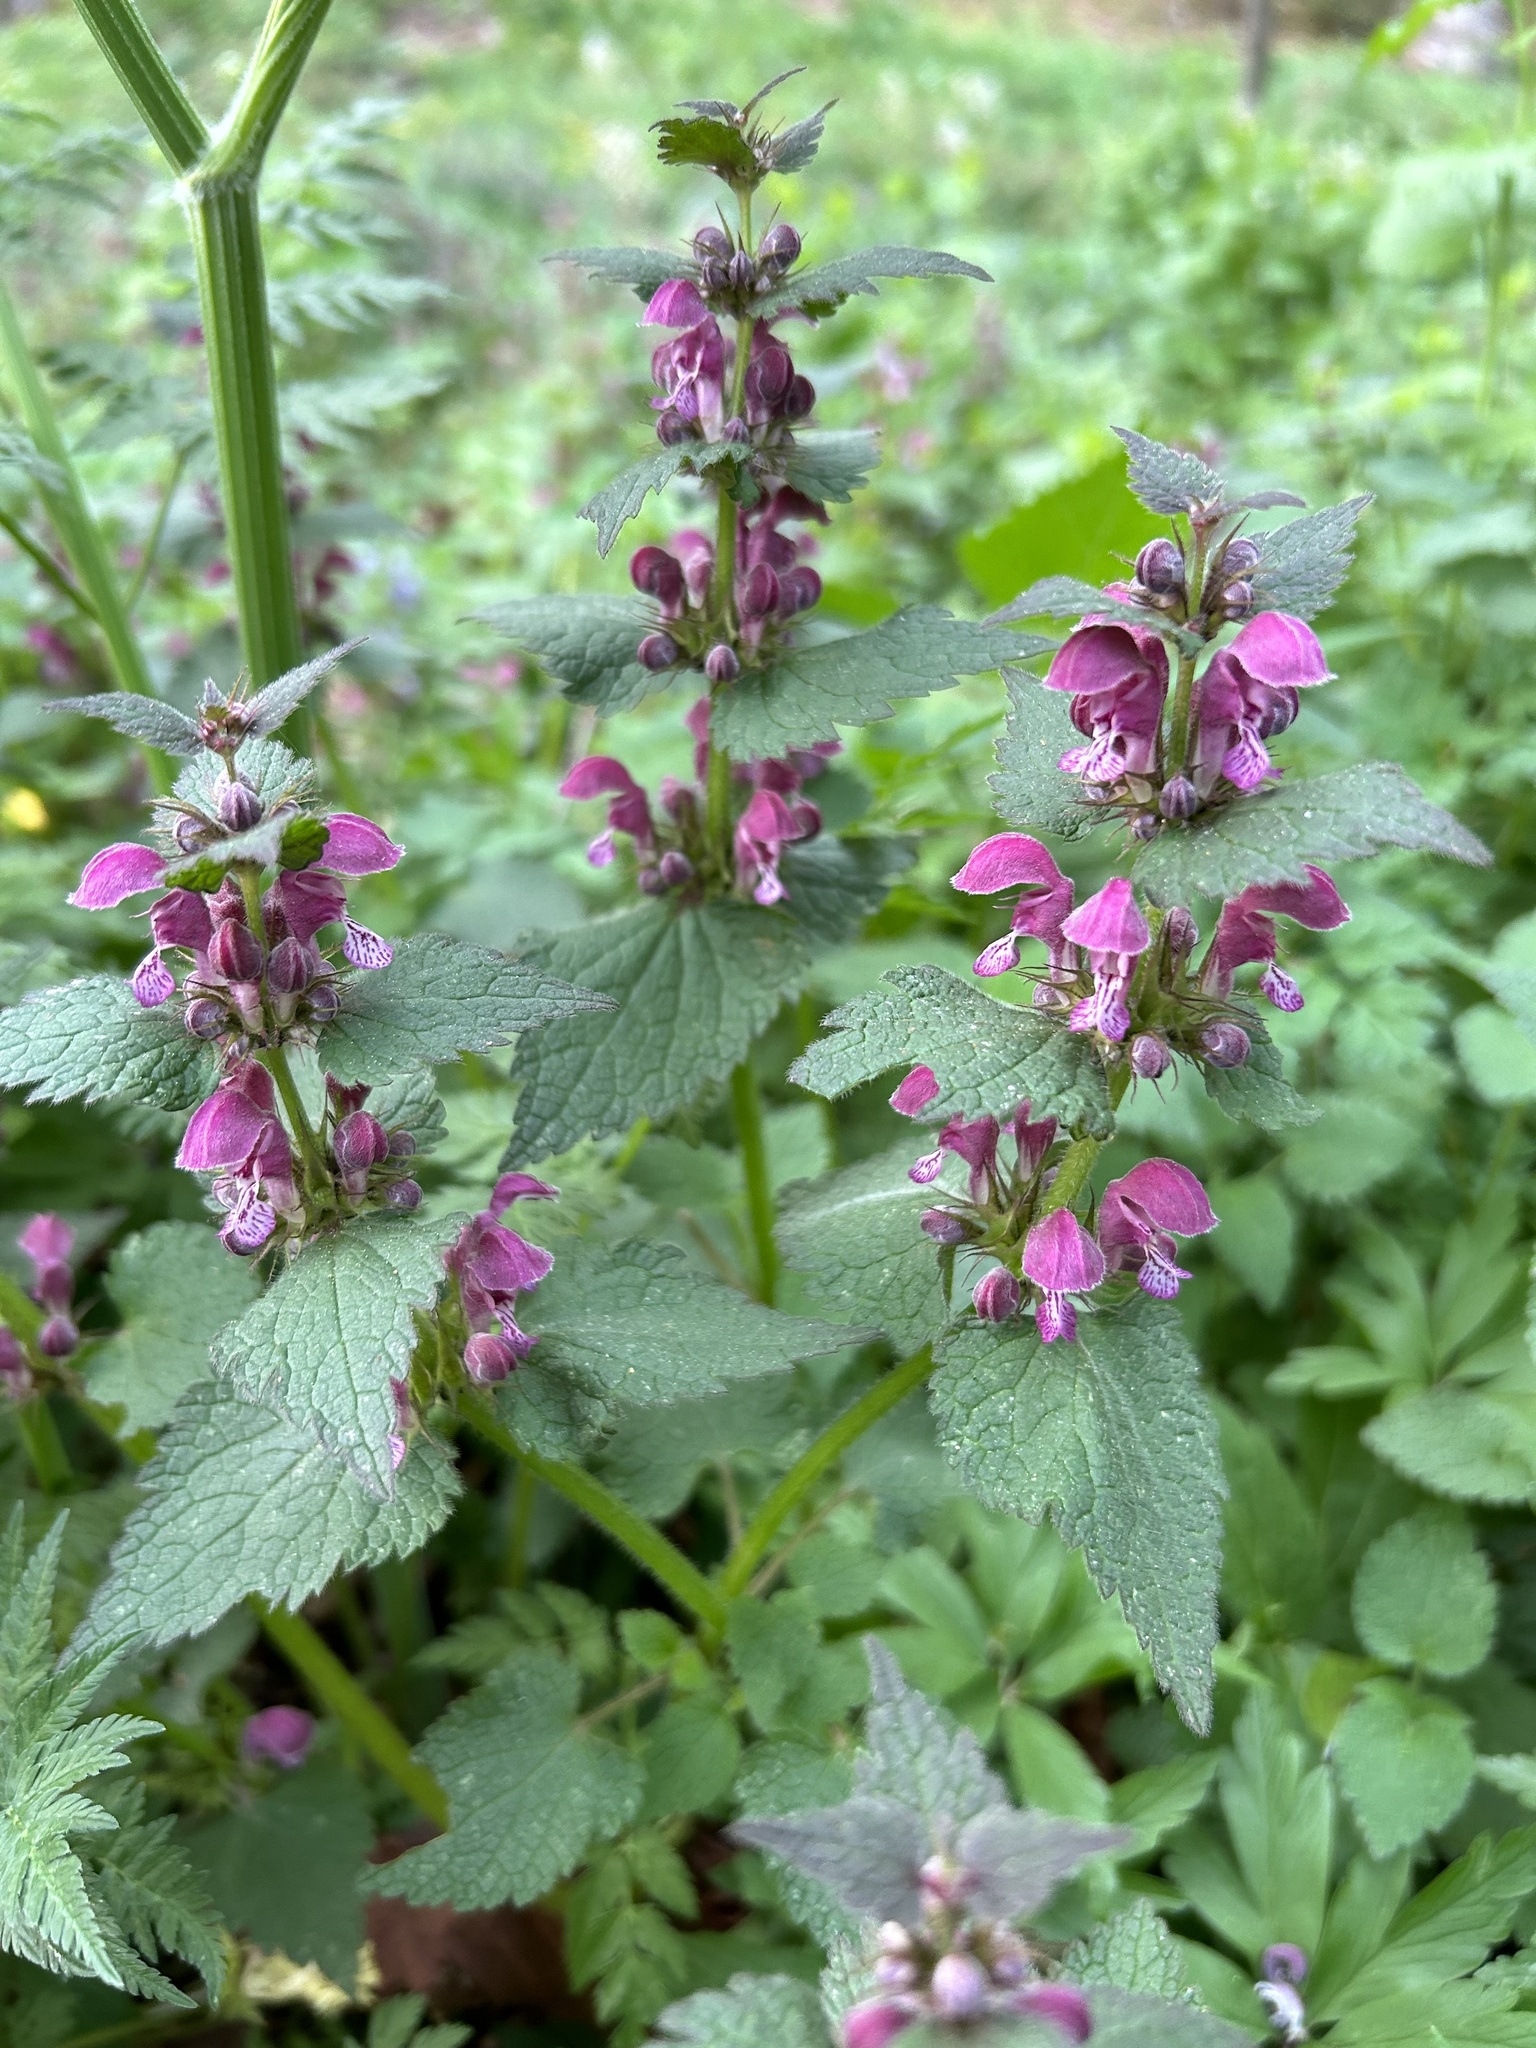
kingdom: Plantae
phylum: Tracheophyta
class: Magnoliopsida
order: Lamiales
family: Lamiaceae
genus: Lamium
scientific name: Lamium maculatum
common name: Spotted dead-nettle
